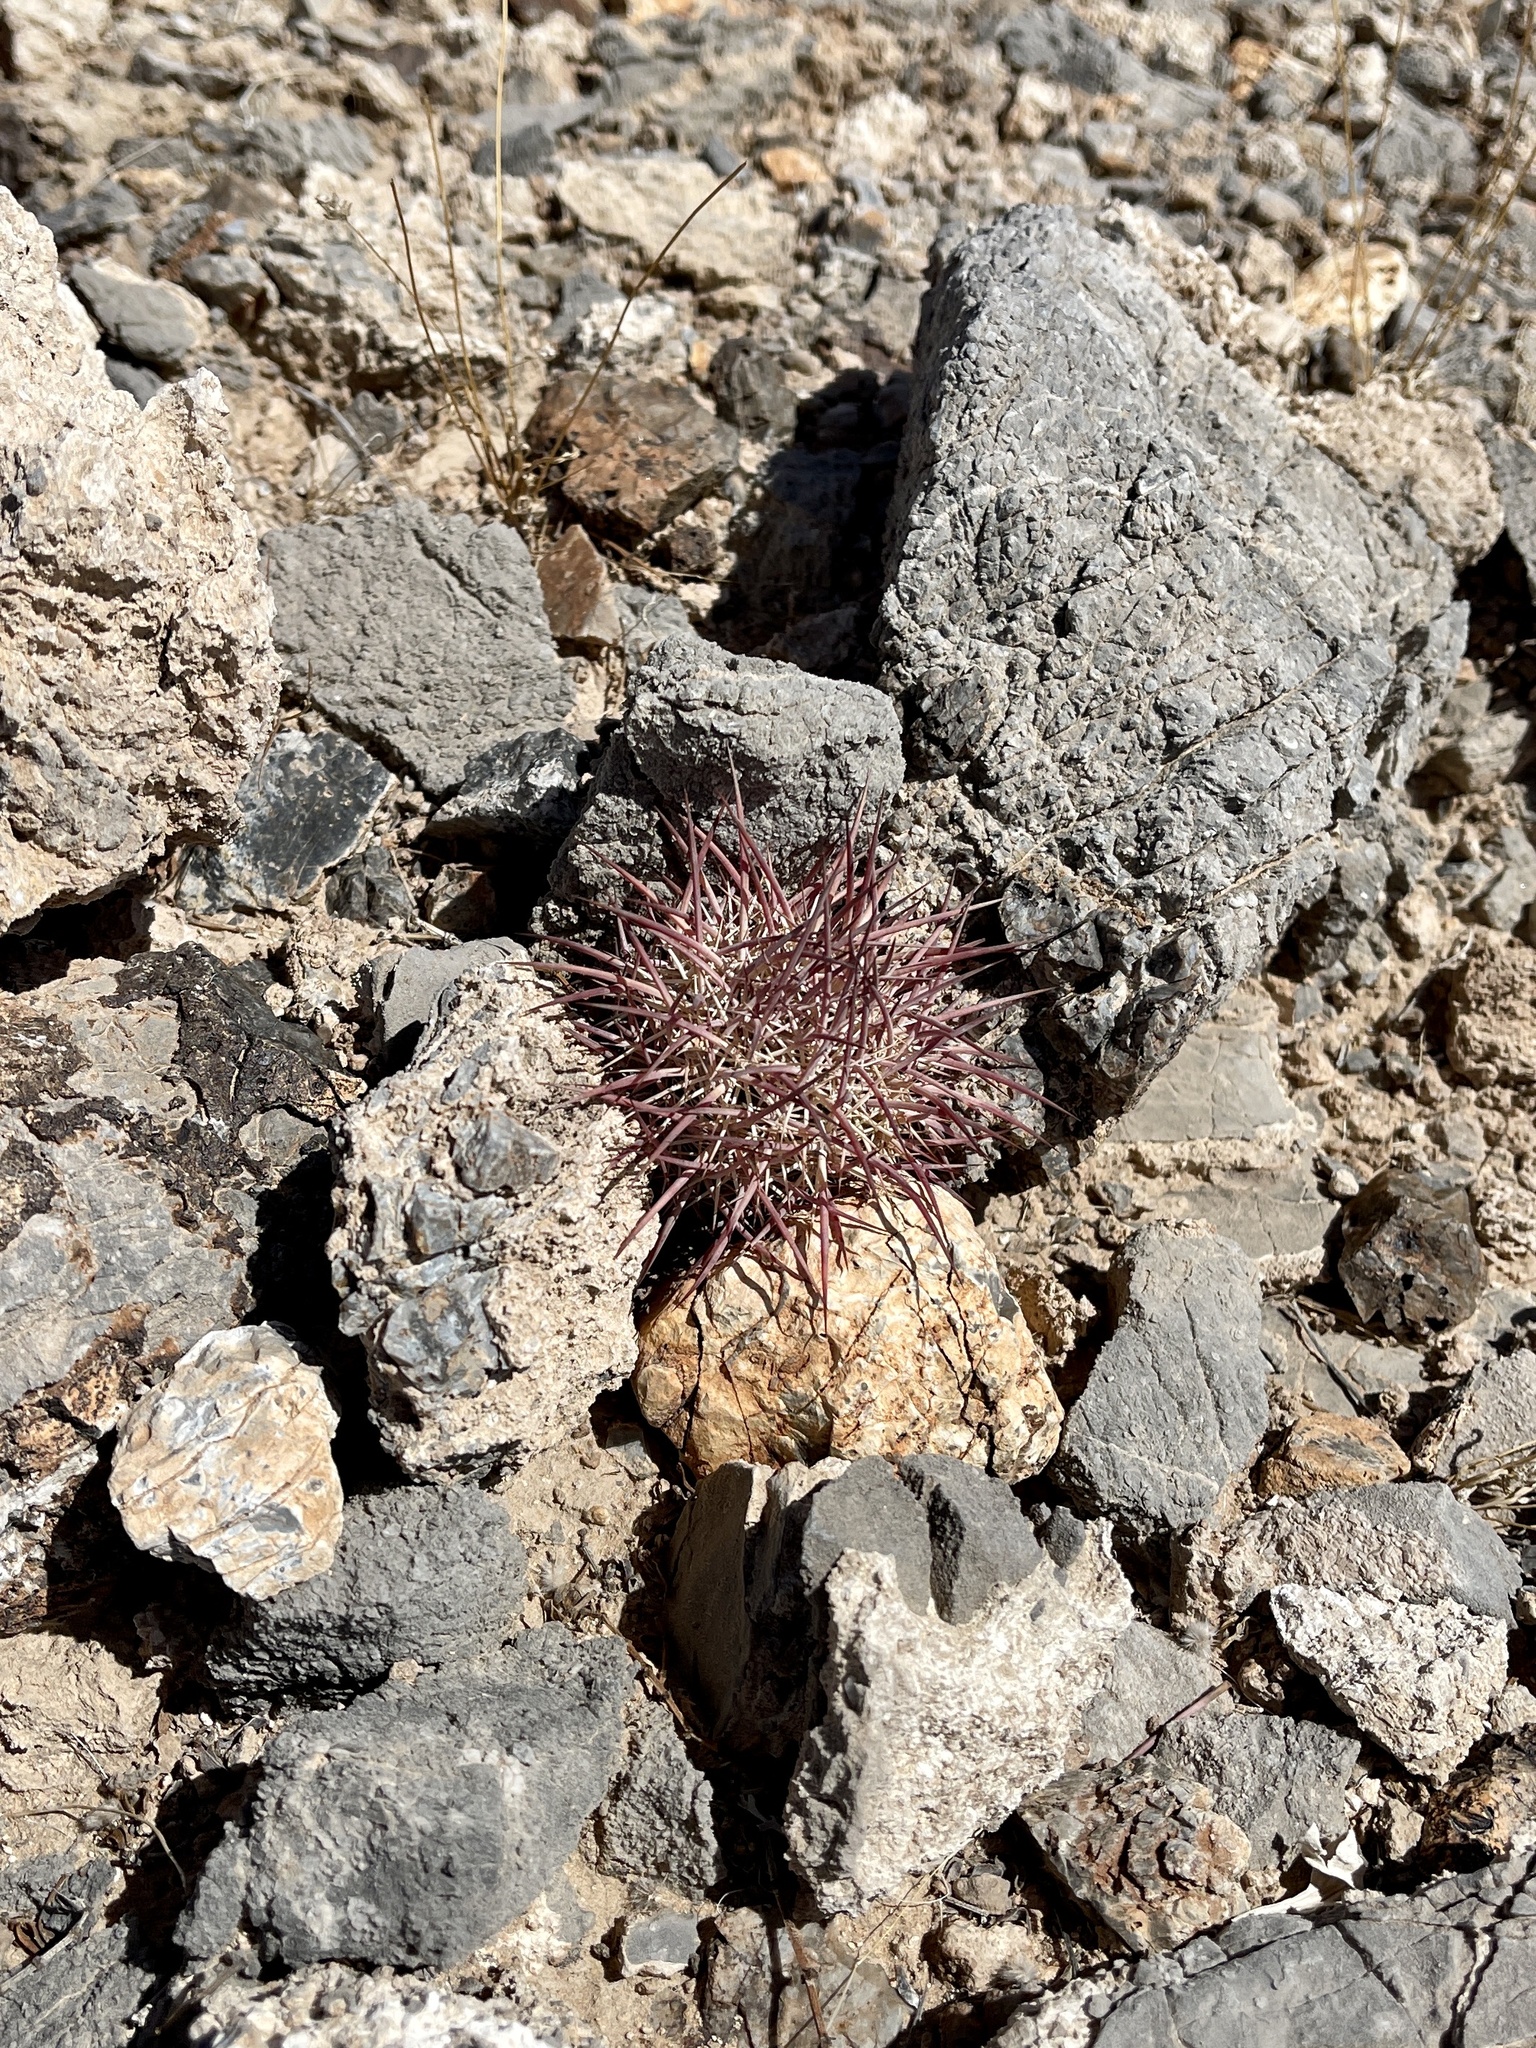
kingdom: Plantae
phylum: Tracheophyta
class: Magnoliopsida
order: Caryophyllales
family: Cactaceae
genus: Sclerocactus
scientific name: Sclerocactus johnsonii
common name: Eight-spine fishhook cactus
